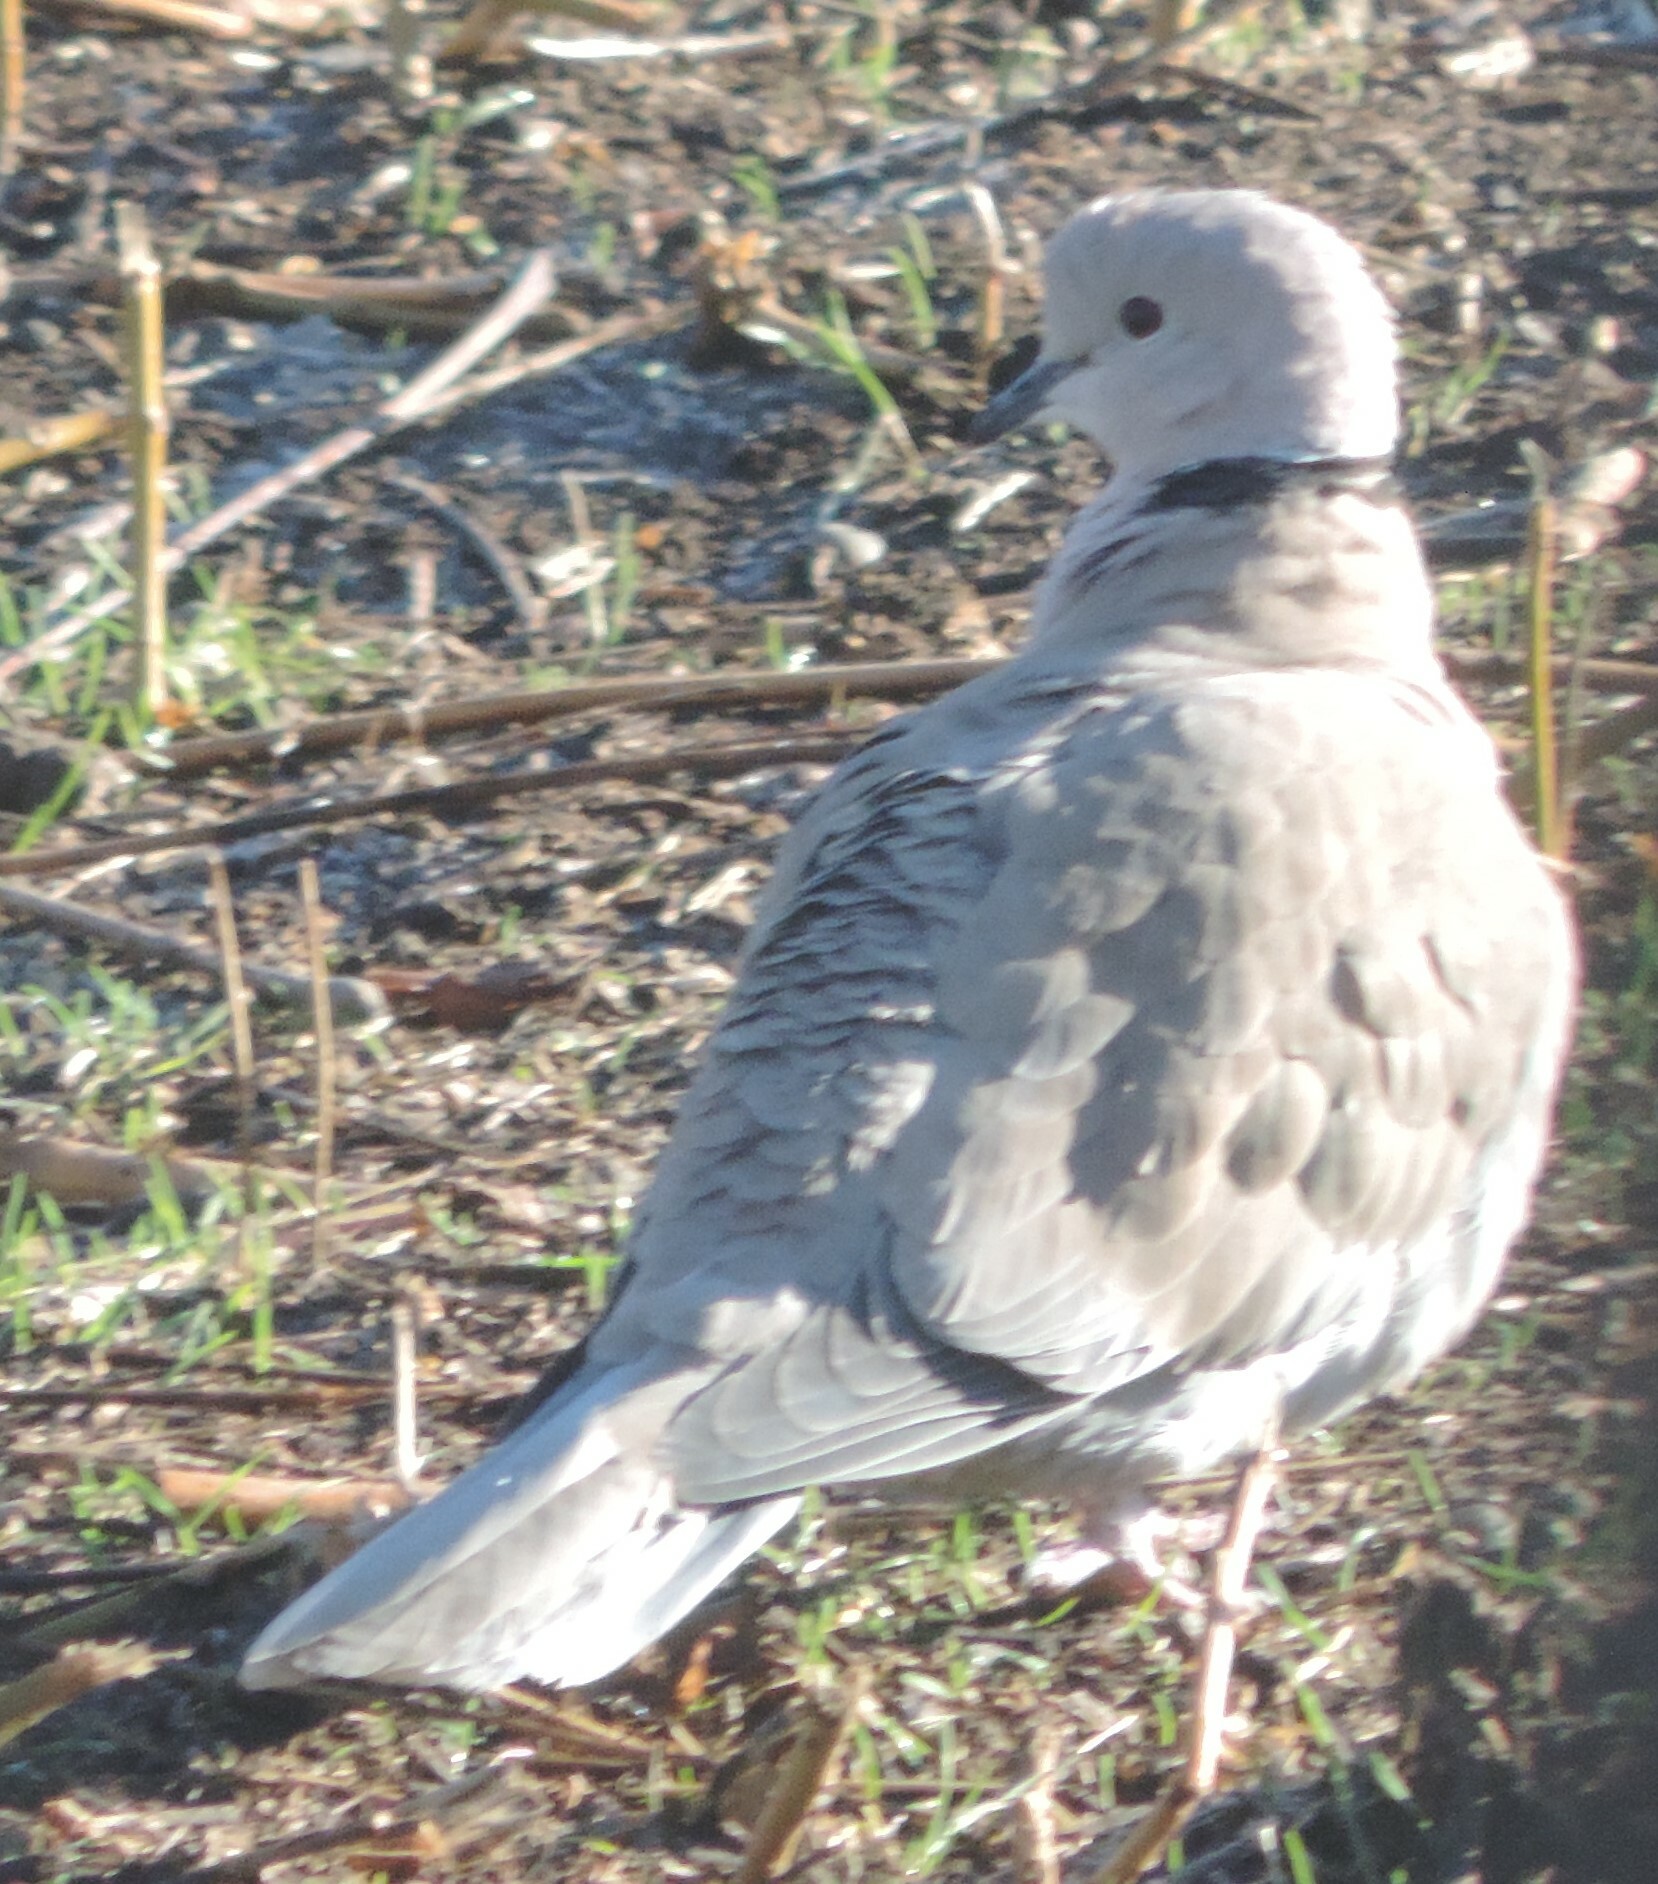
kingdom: Animalia
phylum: Chordata
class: Aves
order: Columbiformes
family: Columbidae
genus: Streptopelia
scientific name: Streptopelia decaocto
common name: Eurasian collared dove
